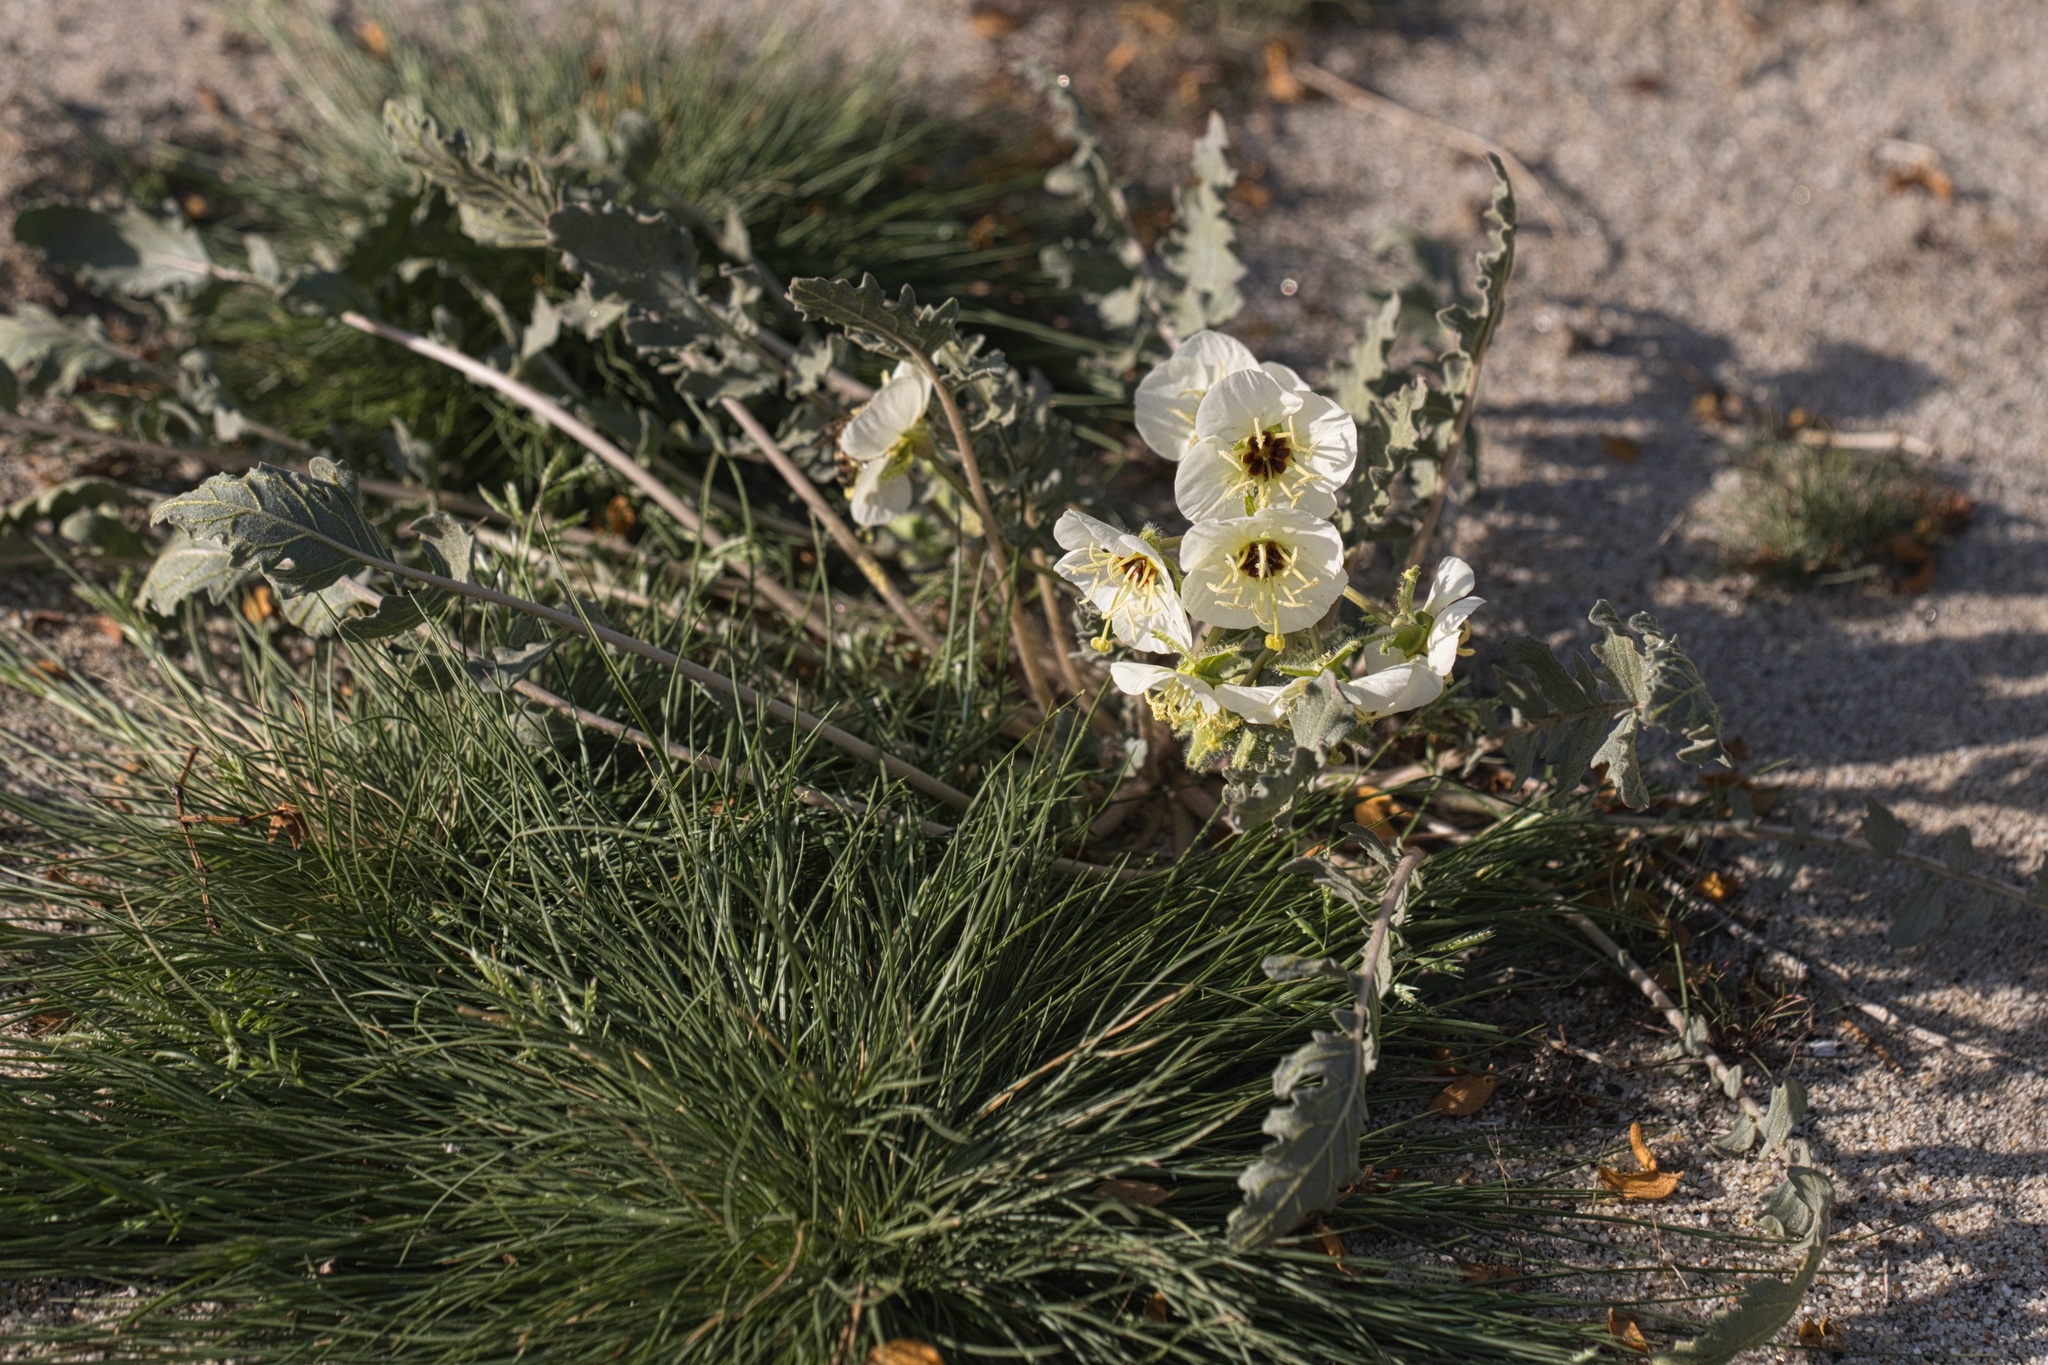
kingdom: Plantae
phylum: Tracheophyta
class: Magnoliopsida
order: Myrtales
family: Onagraceae
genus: Chylismia
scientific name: Chylismia claviformis
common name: Browneyes
